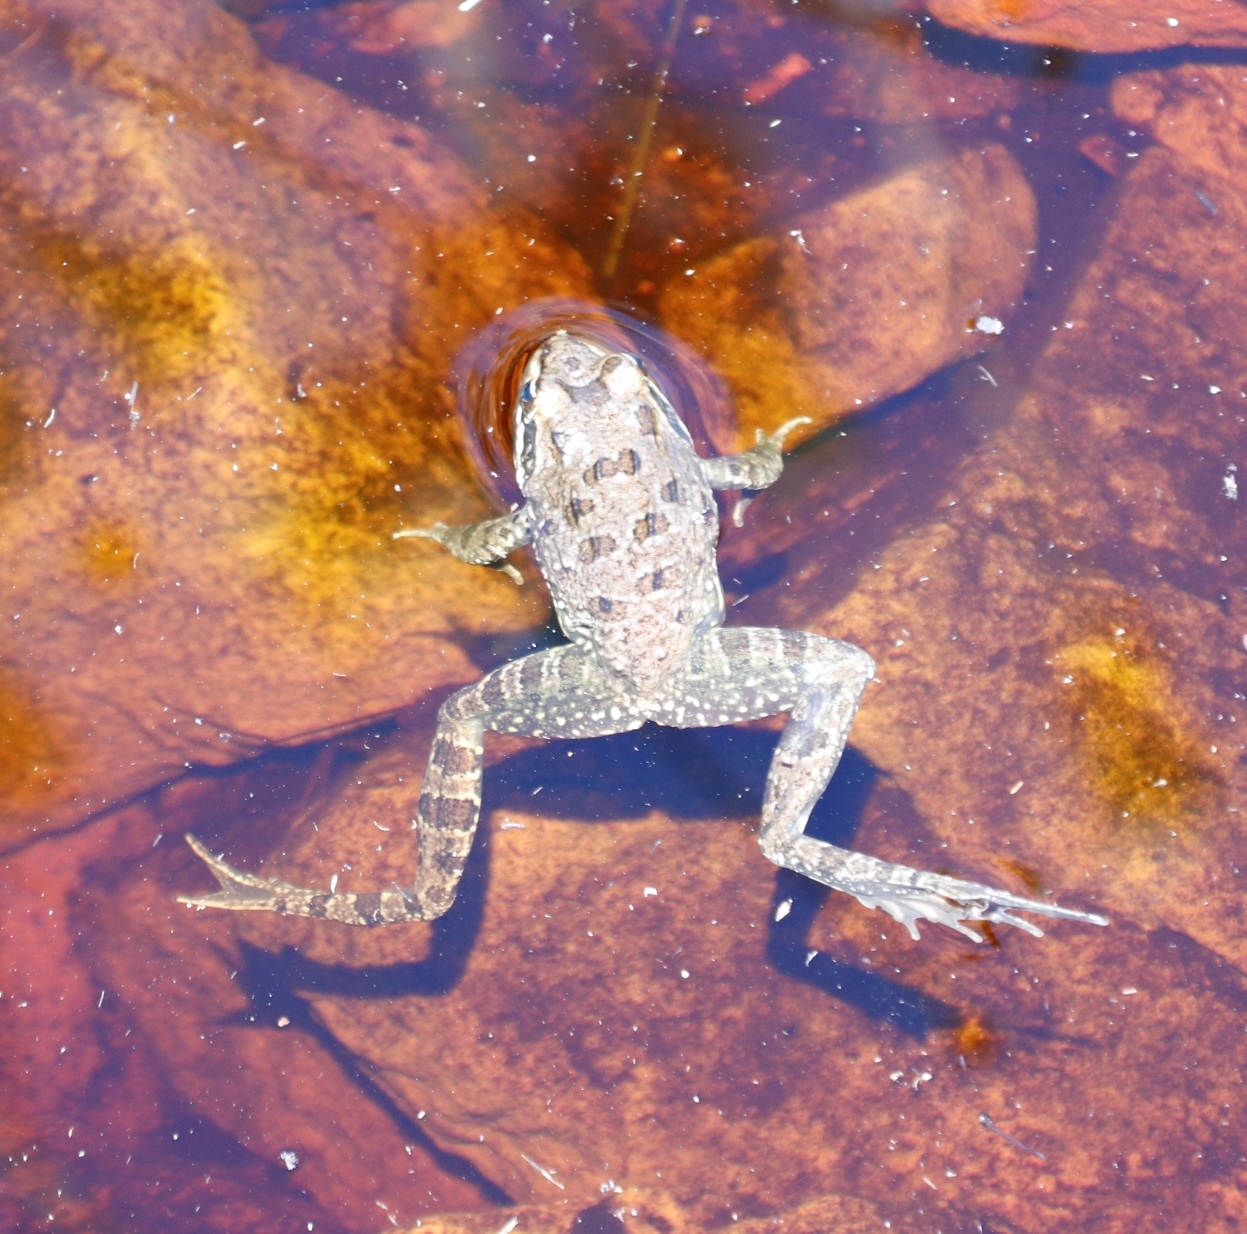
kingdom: Animalia
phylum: Chordata
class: Amphibia
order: Anura
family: Pyxicephalidae
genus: Amietia
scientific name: Amietia fuscigula
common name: Cape rana
